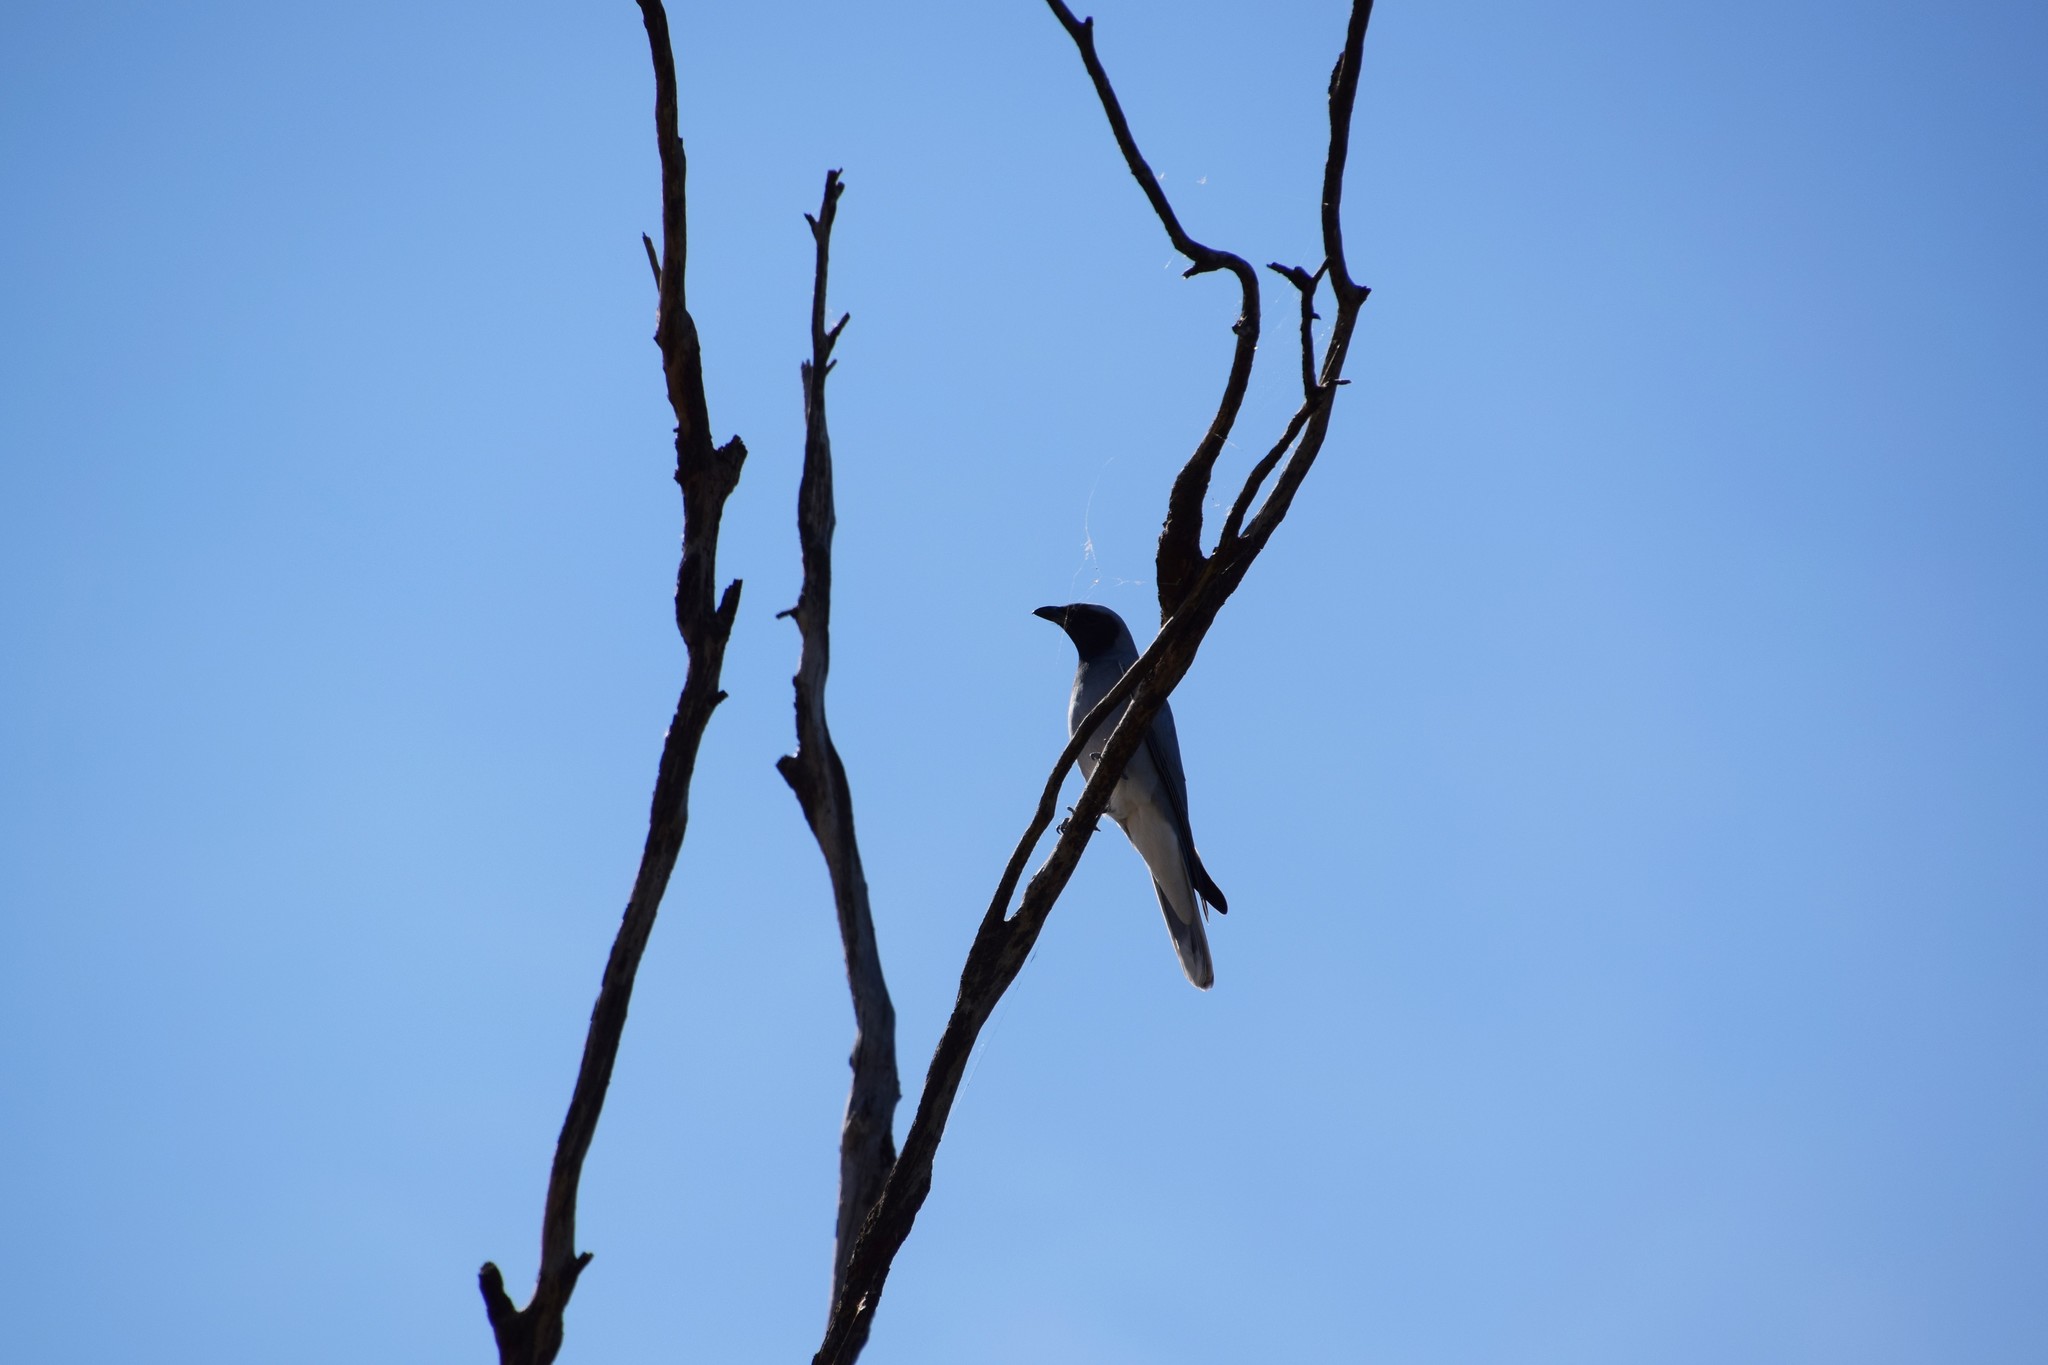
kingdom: Animalia
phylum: Chordata
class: Aves
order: Passeriformes
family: Campephagidae
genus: Coracina
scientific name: Coracina novaehollandiae
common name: Black-faced cuckooshrike
